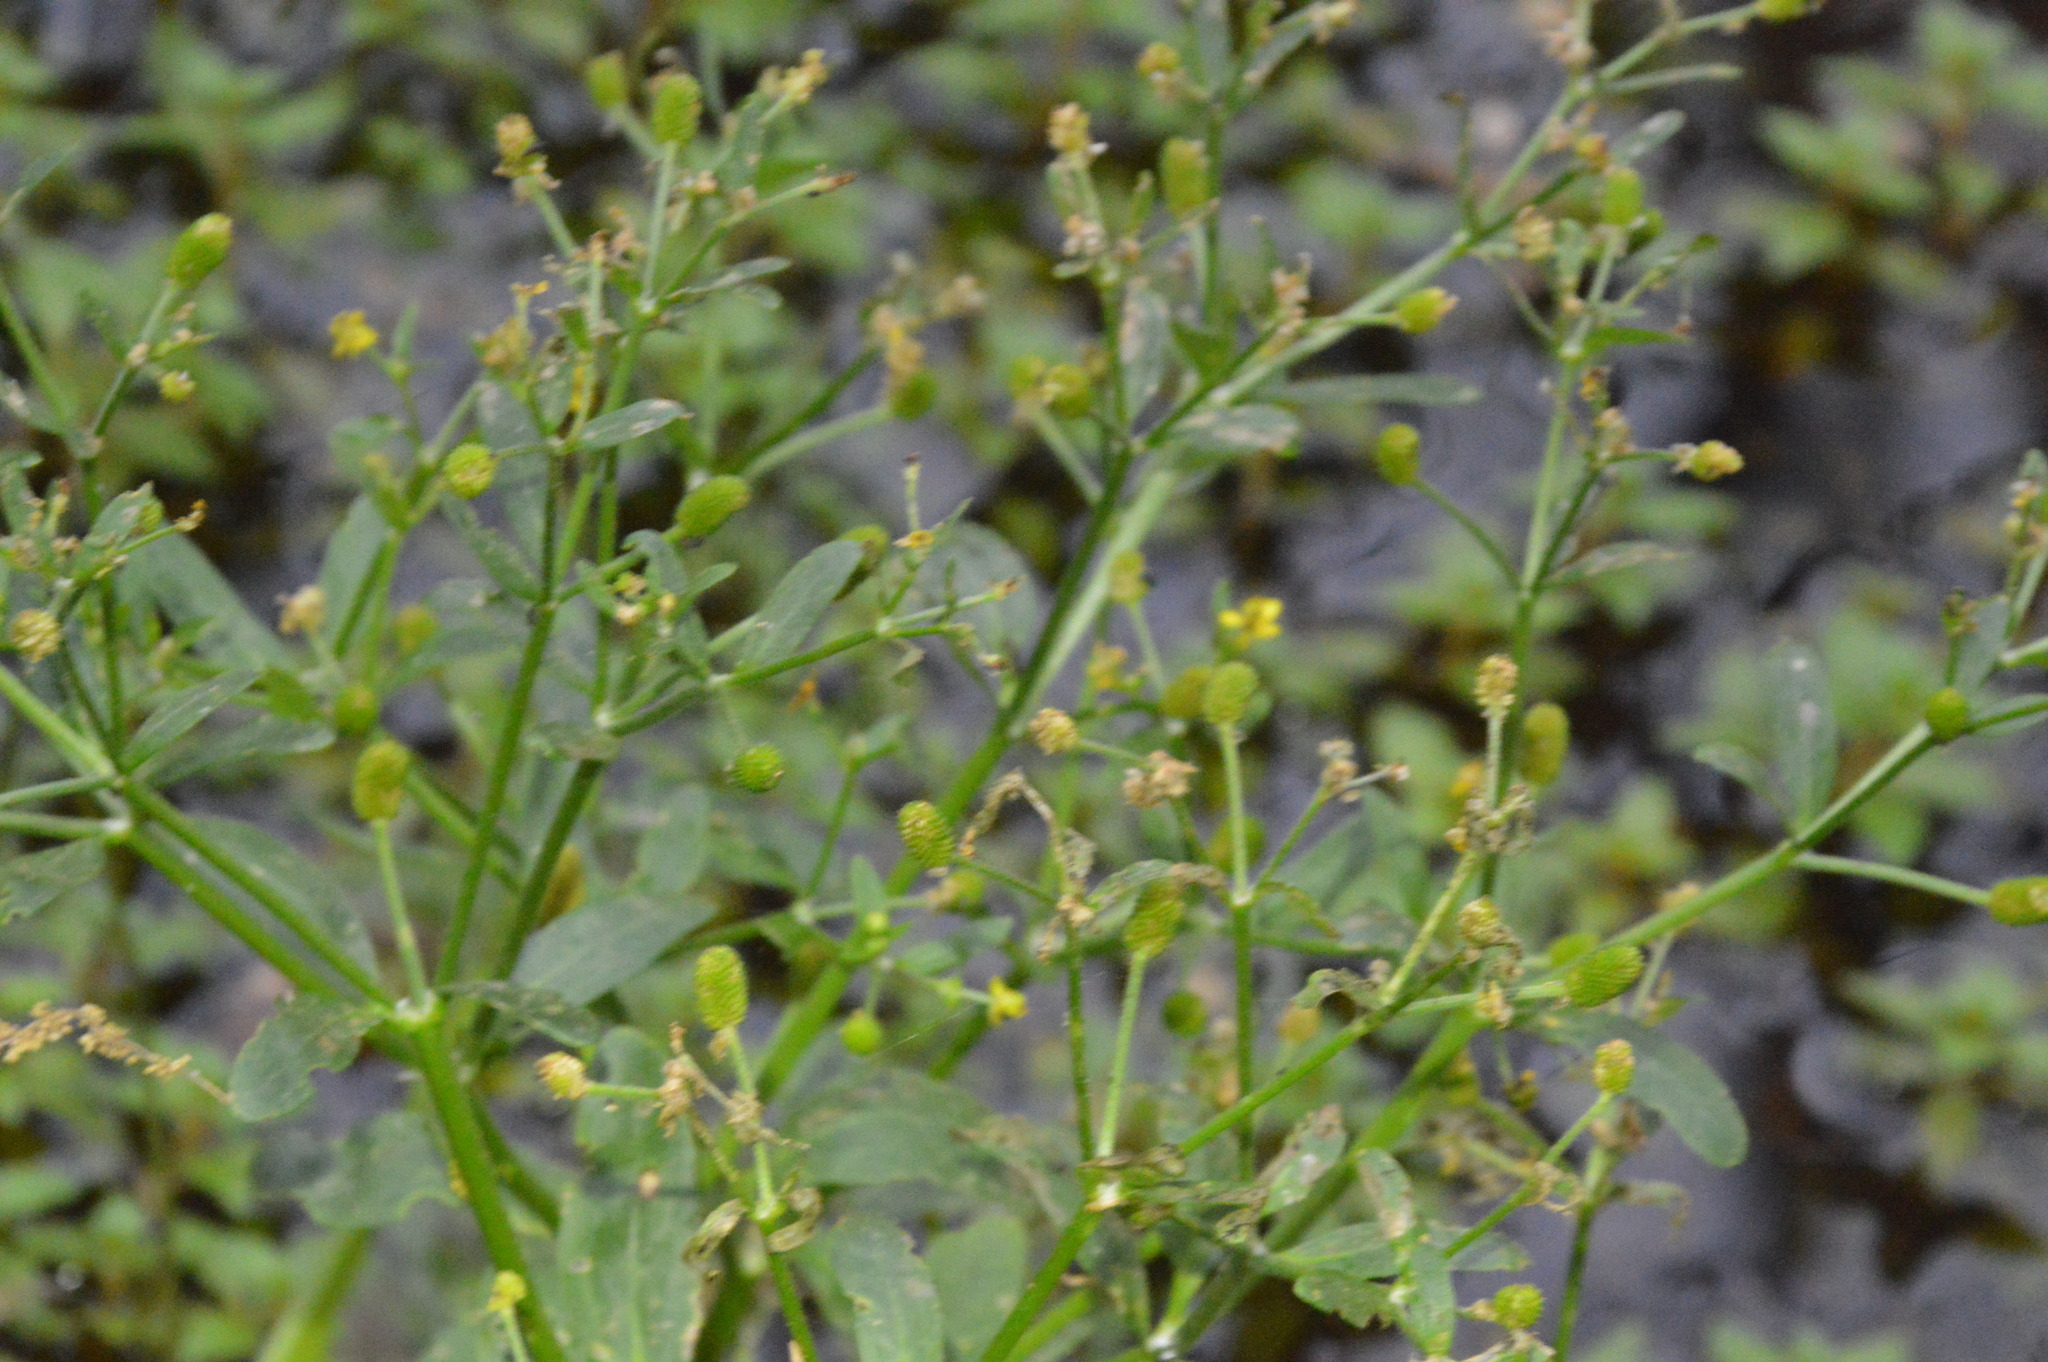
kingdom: Plantae
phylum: Tracheophyta
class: Magnoliopsida
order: Ranunculales
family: Ranunculaceae
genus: Ranunculus
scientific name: Ranunculus sceleratus
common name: Celery-leaved buttercup
